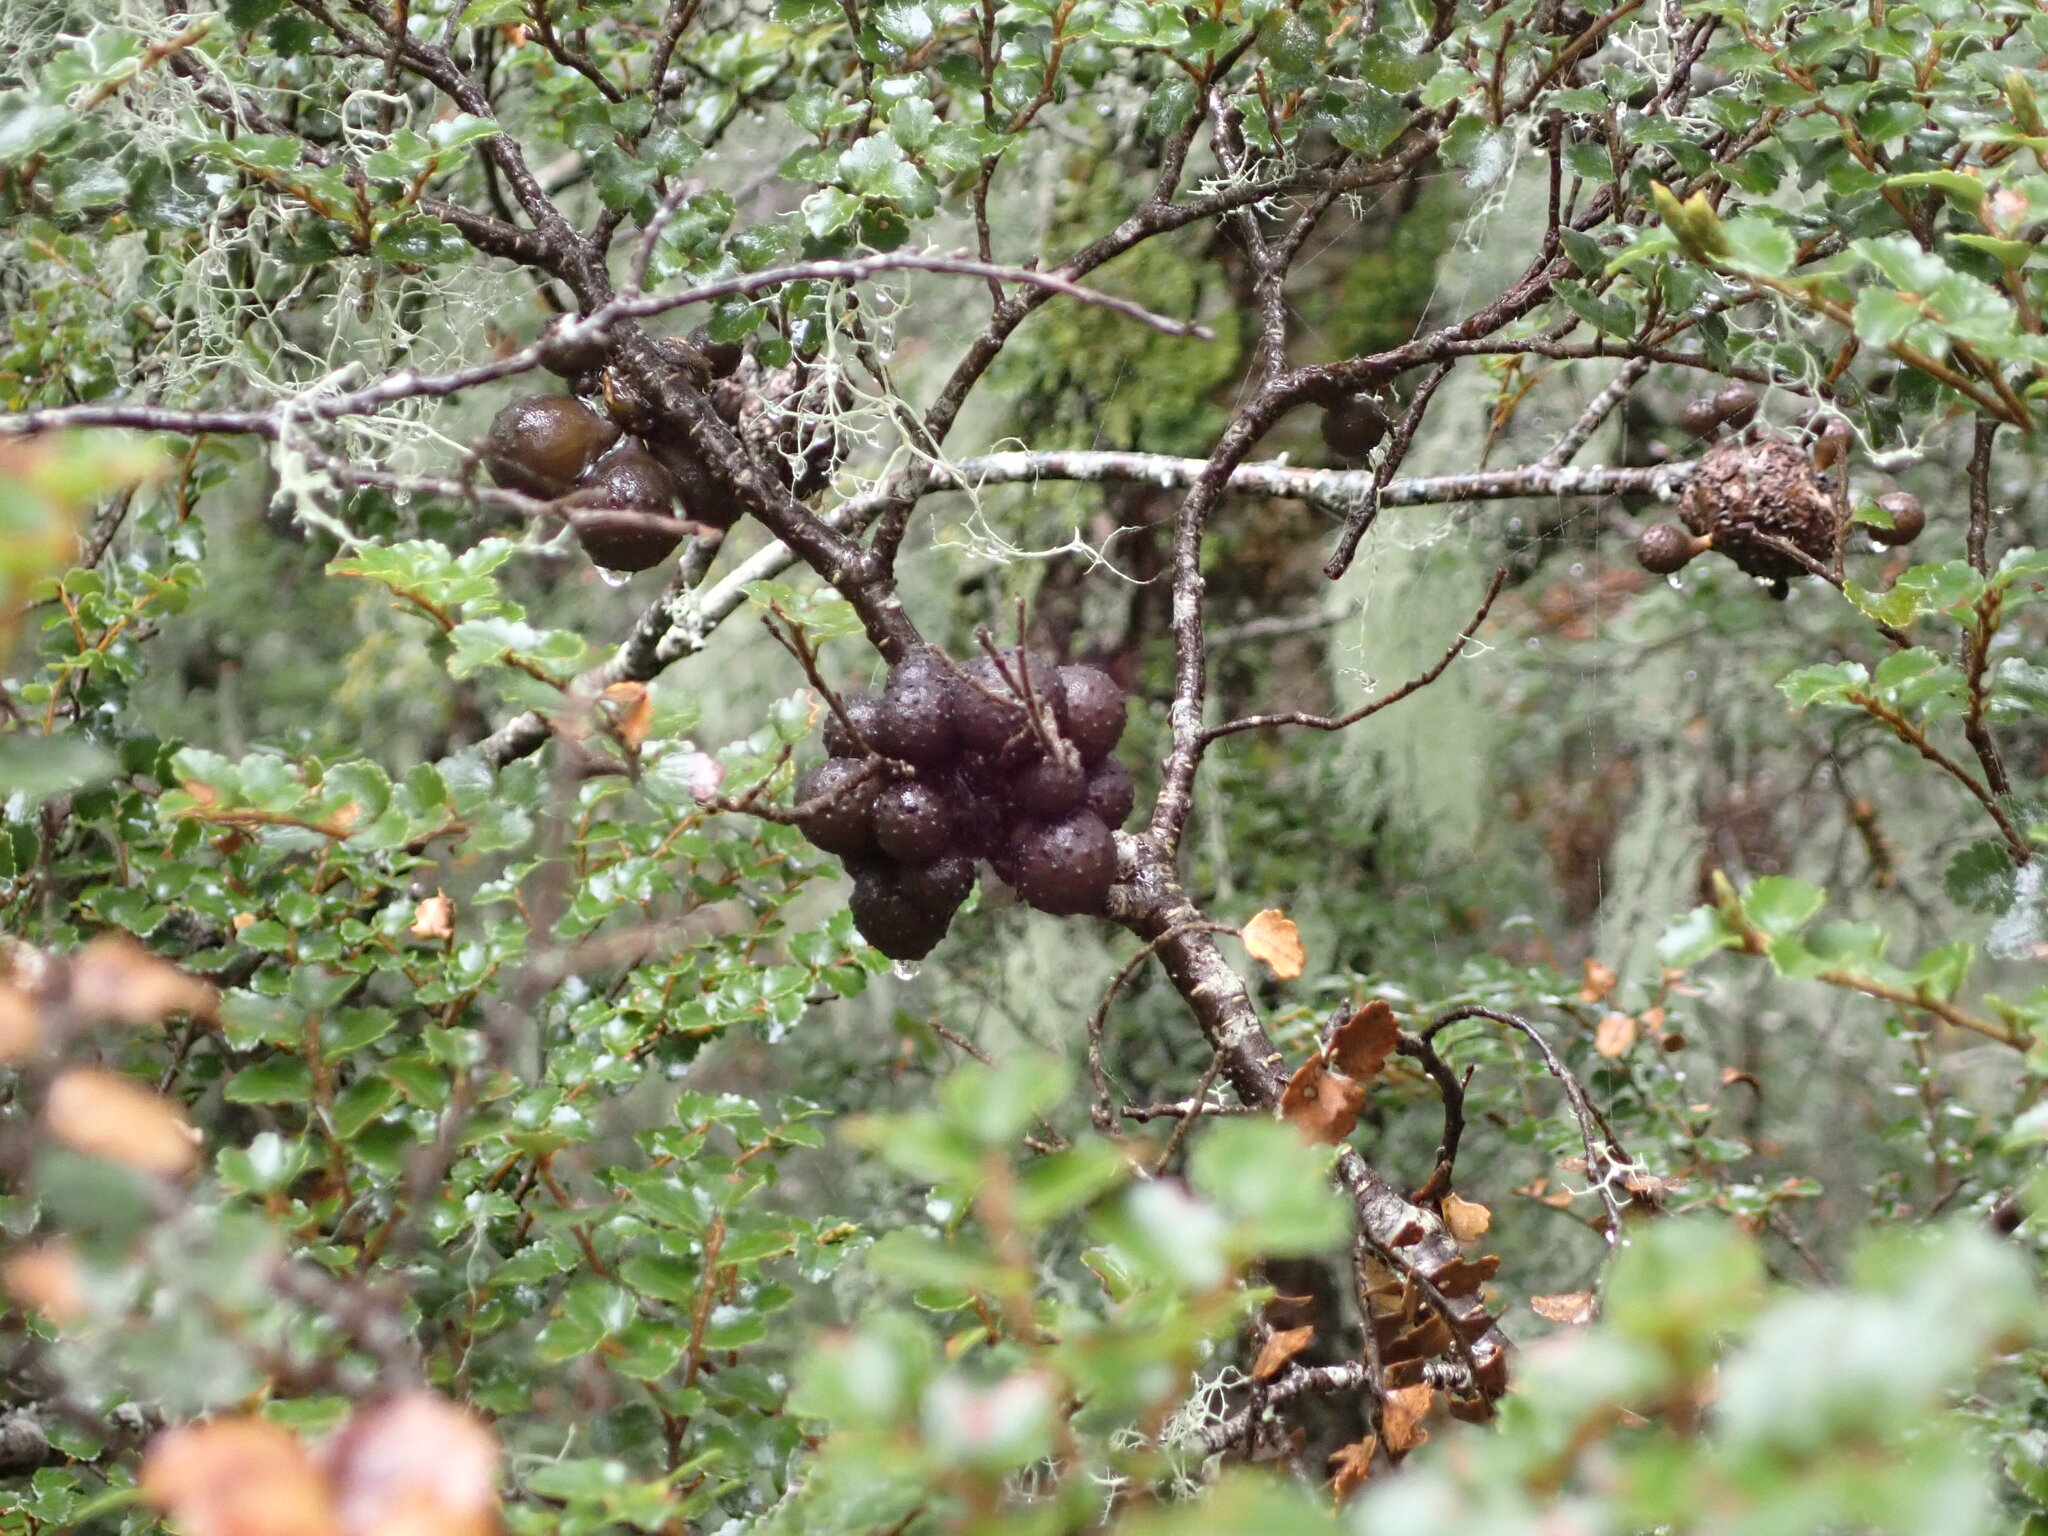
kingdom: Fungi
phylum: Ascomycota
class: Leotiomycetes
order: Cyttariales
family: Cyttariaceae
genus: Cyttaria
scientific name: Cyttaria nigra
